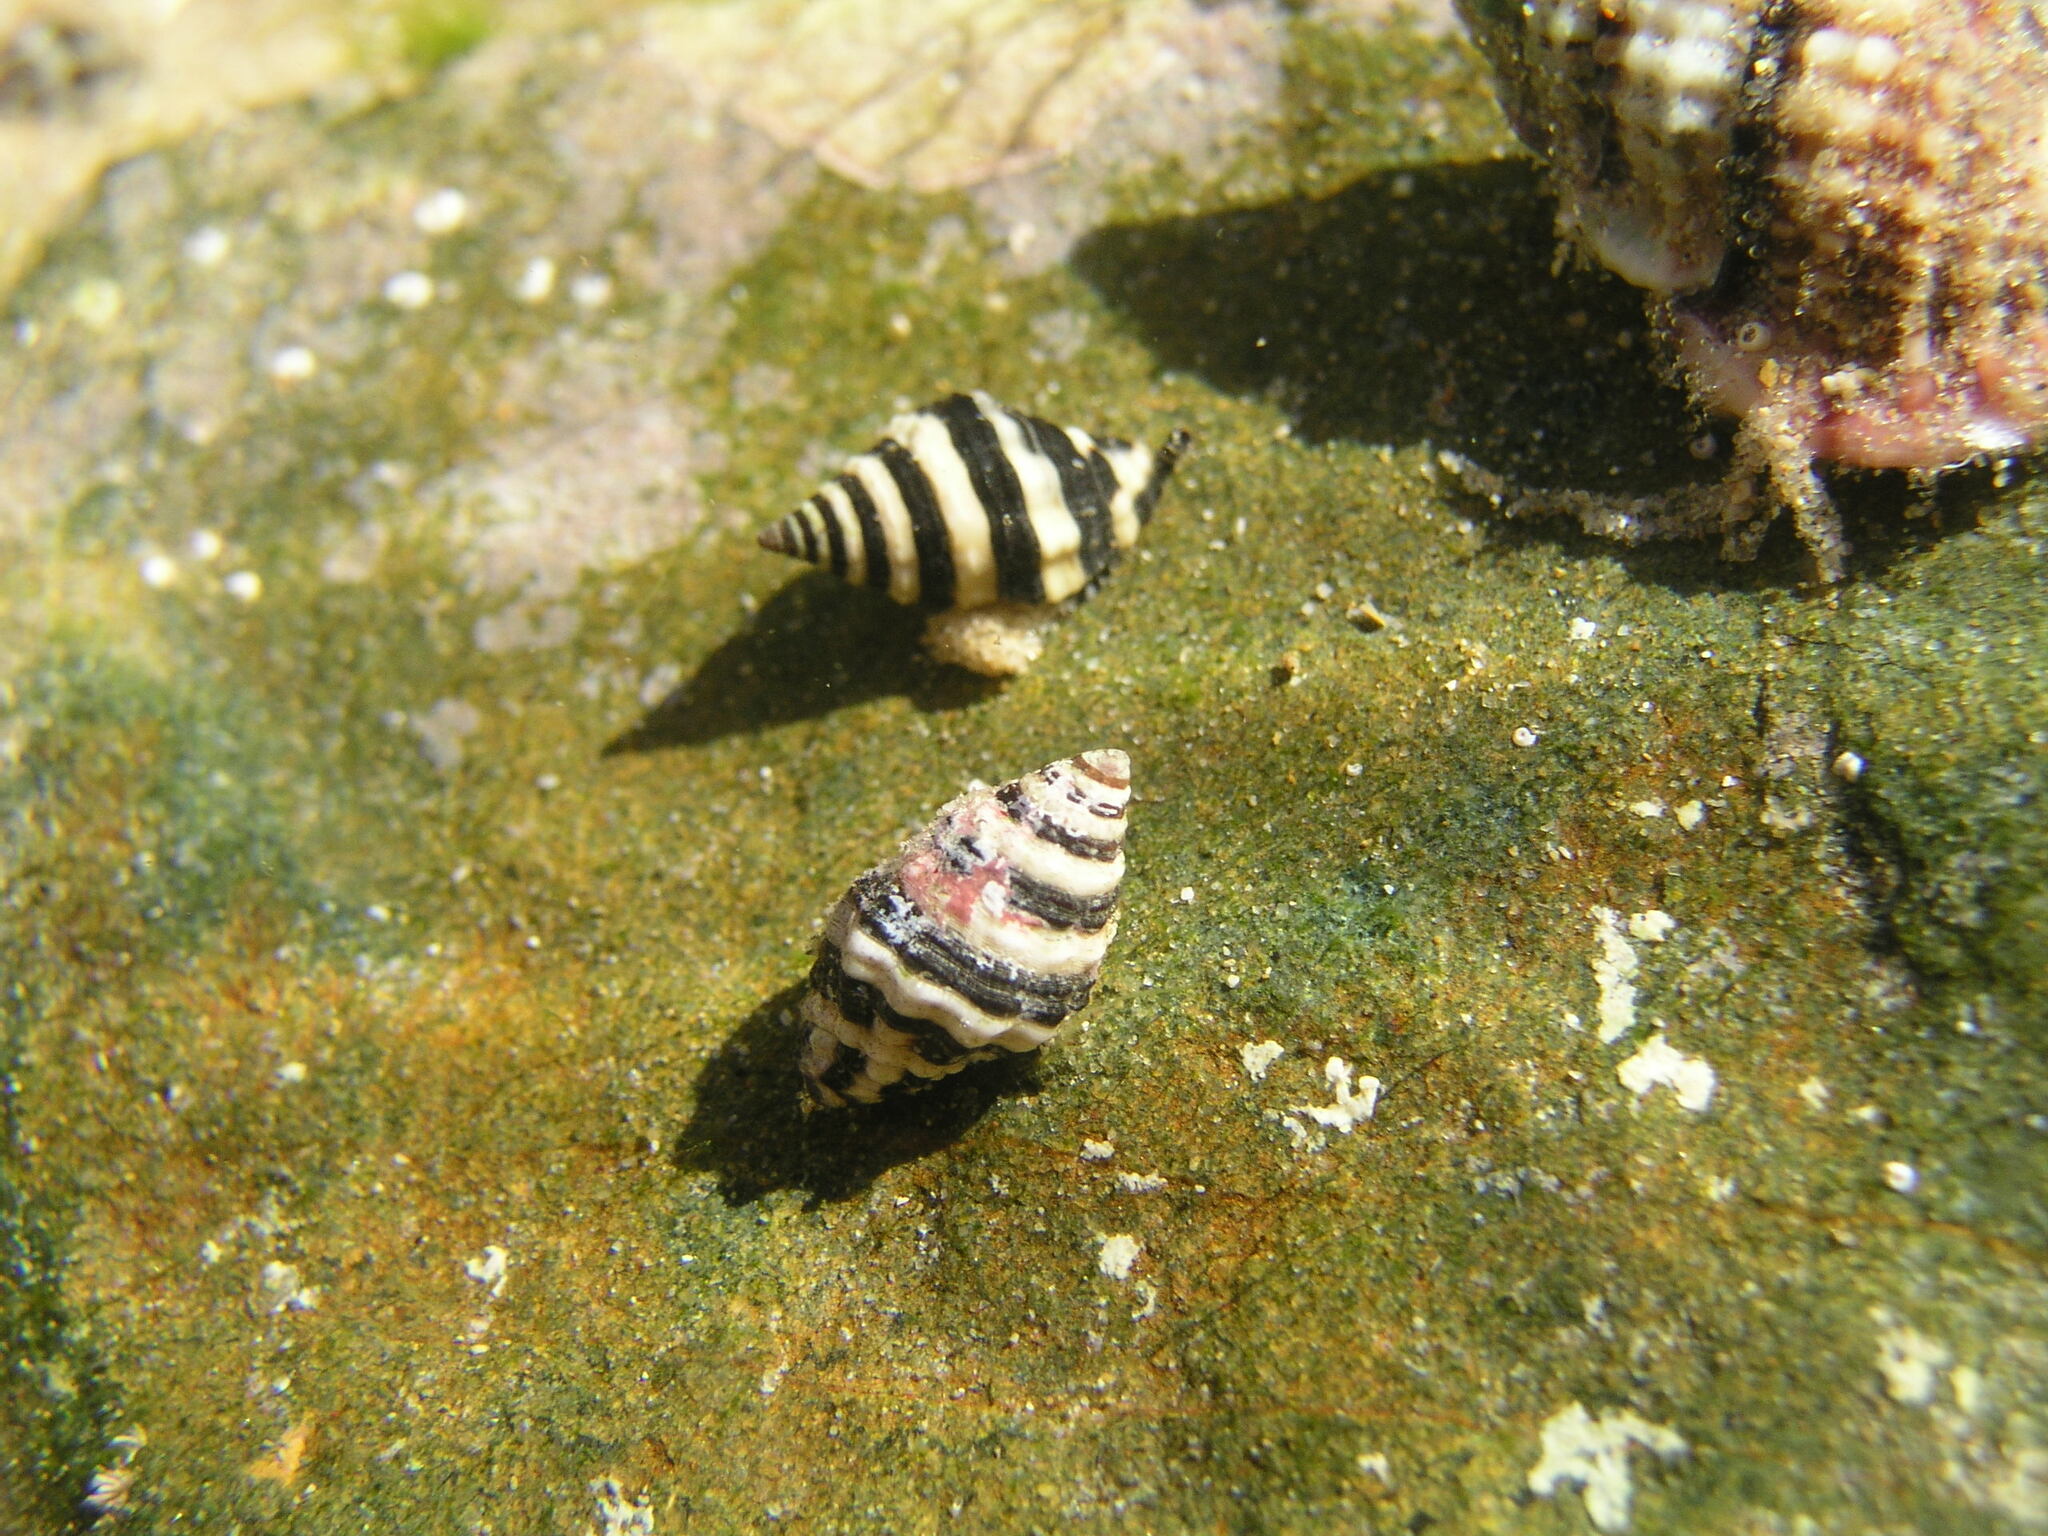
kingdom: Animalia
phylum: Mollusca
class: Gastropoda
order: Neogastropoda
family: Pisaniidae
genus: Engina
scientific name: Engina zonalis
